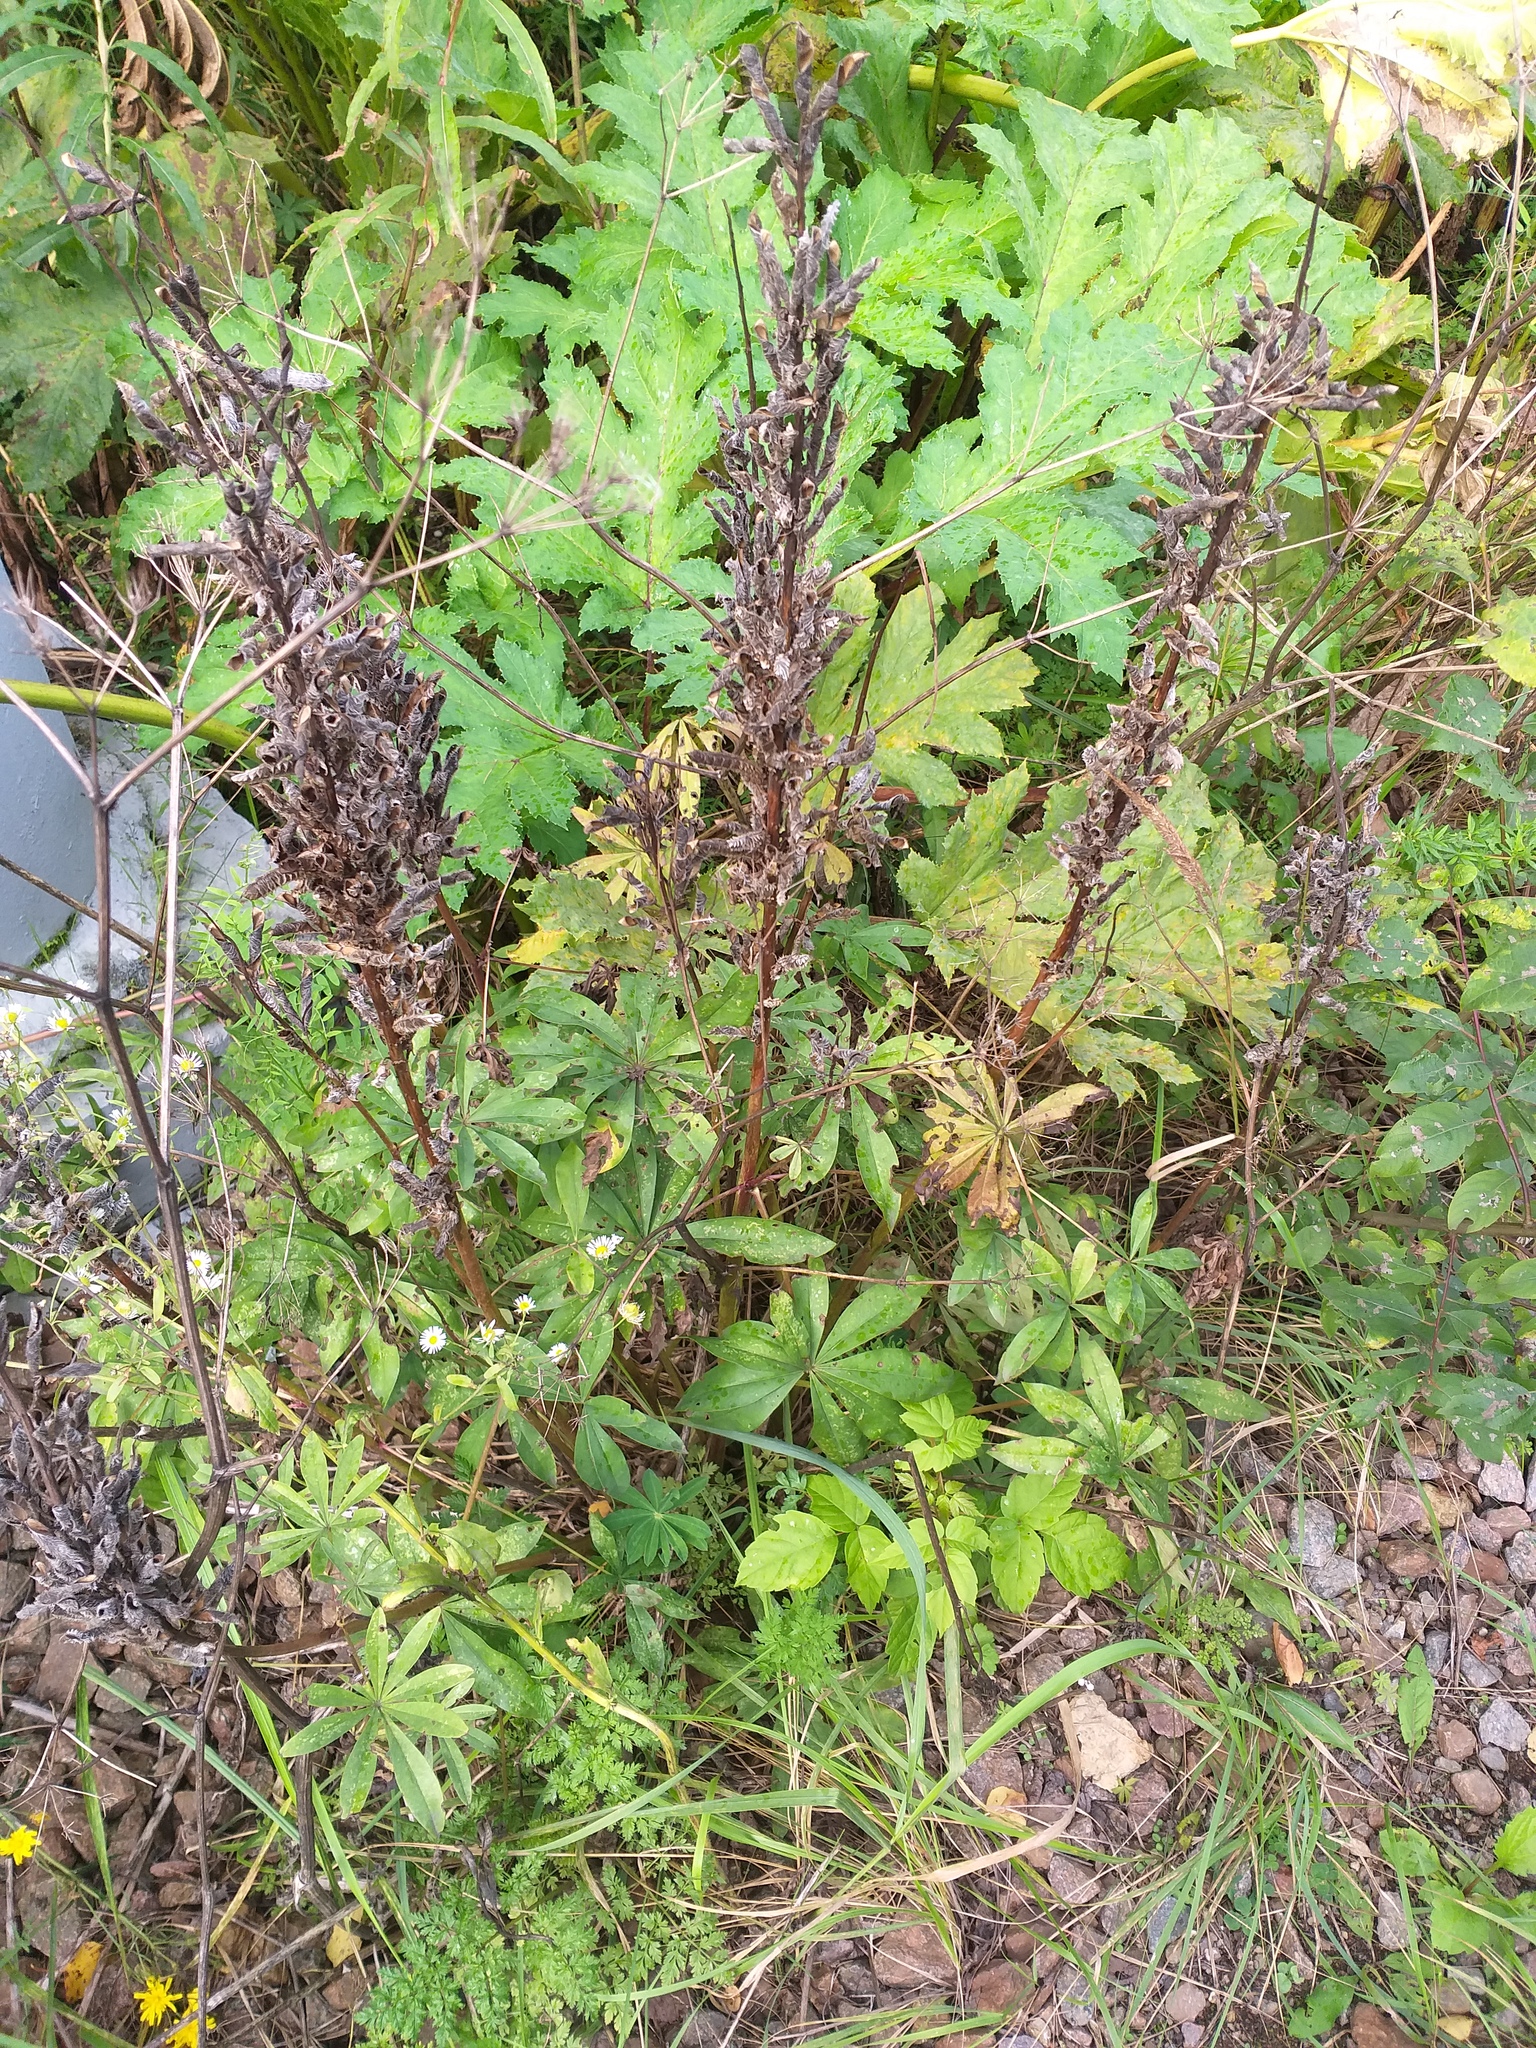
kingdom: Plantae
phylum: Tracheophyta
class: Magnoliopsida
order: Fabales
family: Fabaceae
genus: Lupinus
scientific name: Lupinus polyphyllus
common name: Garden lupin
